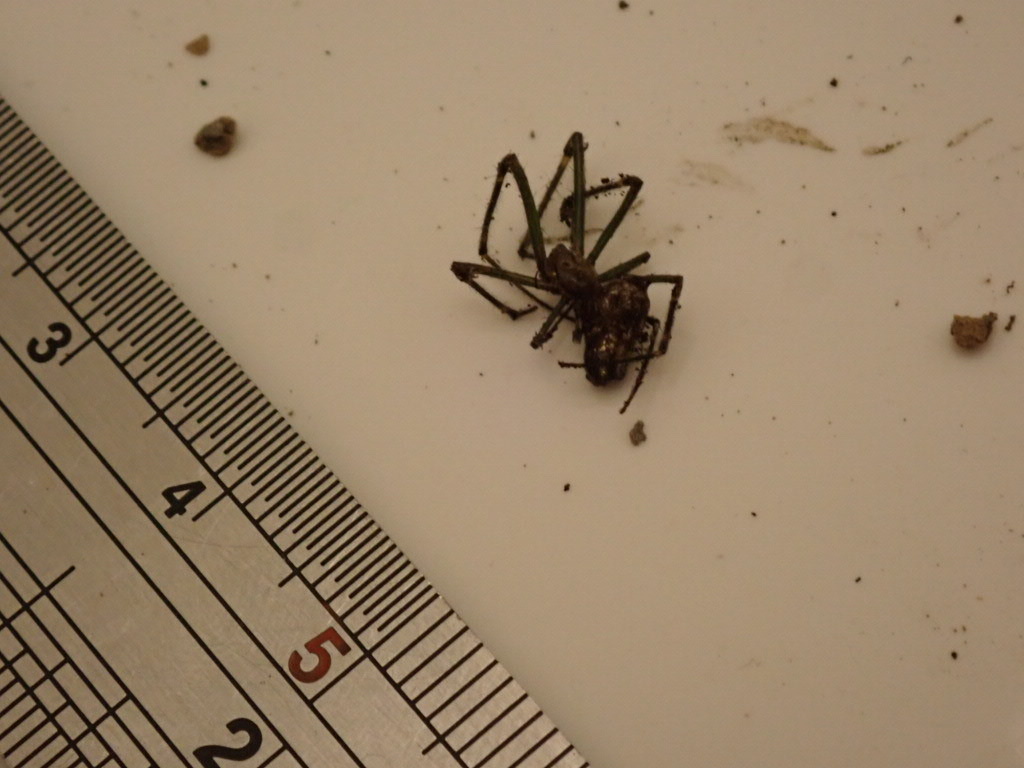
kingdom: Animalia
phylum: Arthropoda
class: Arachnida
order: Araneae
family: Tetragnathidae
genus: Leucauge
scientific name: Leucauge dromedaria
